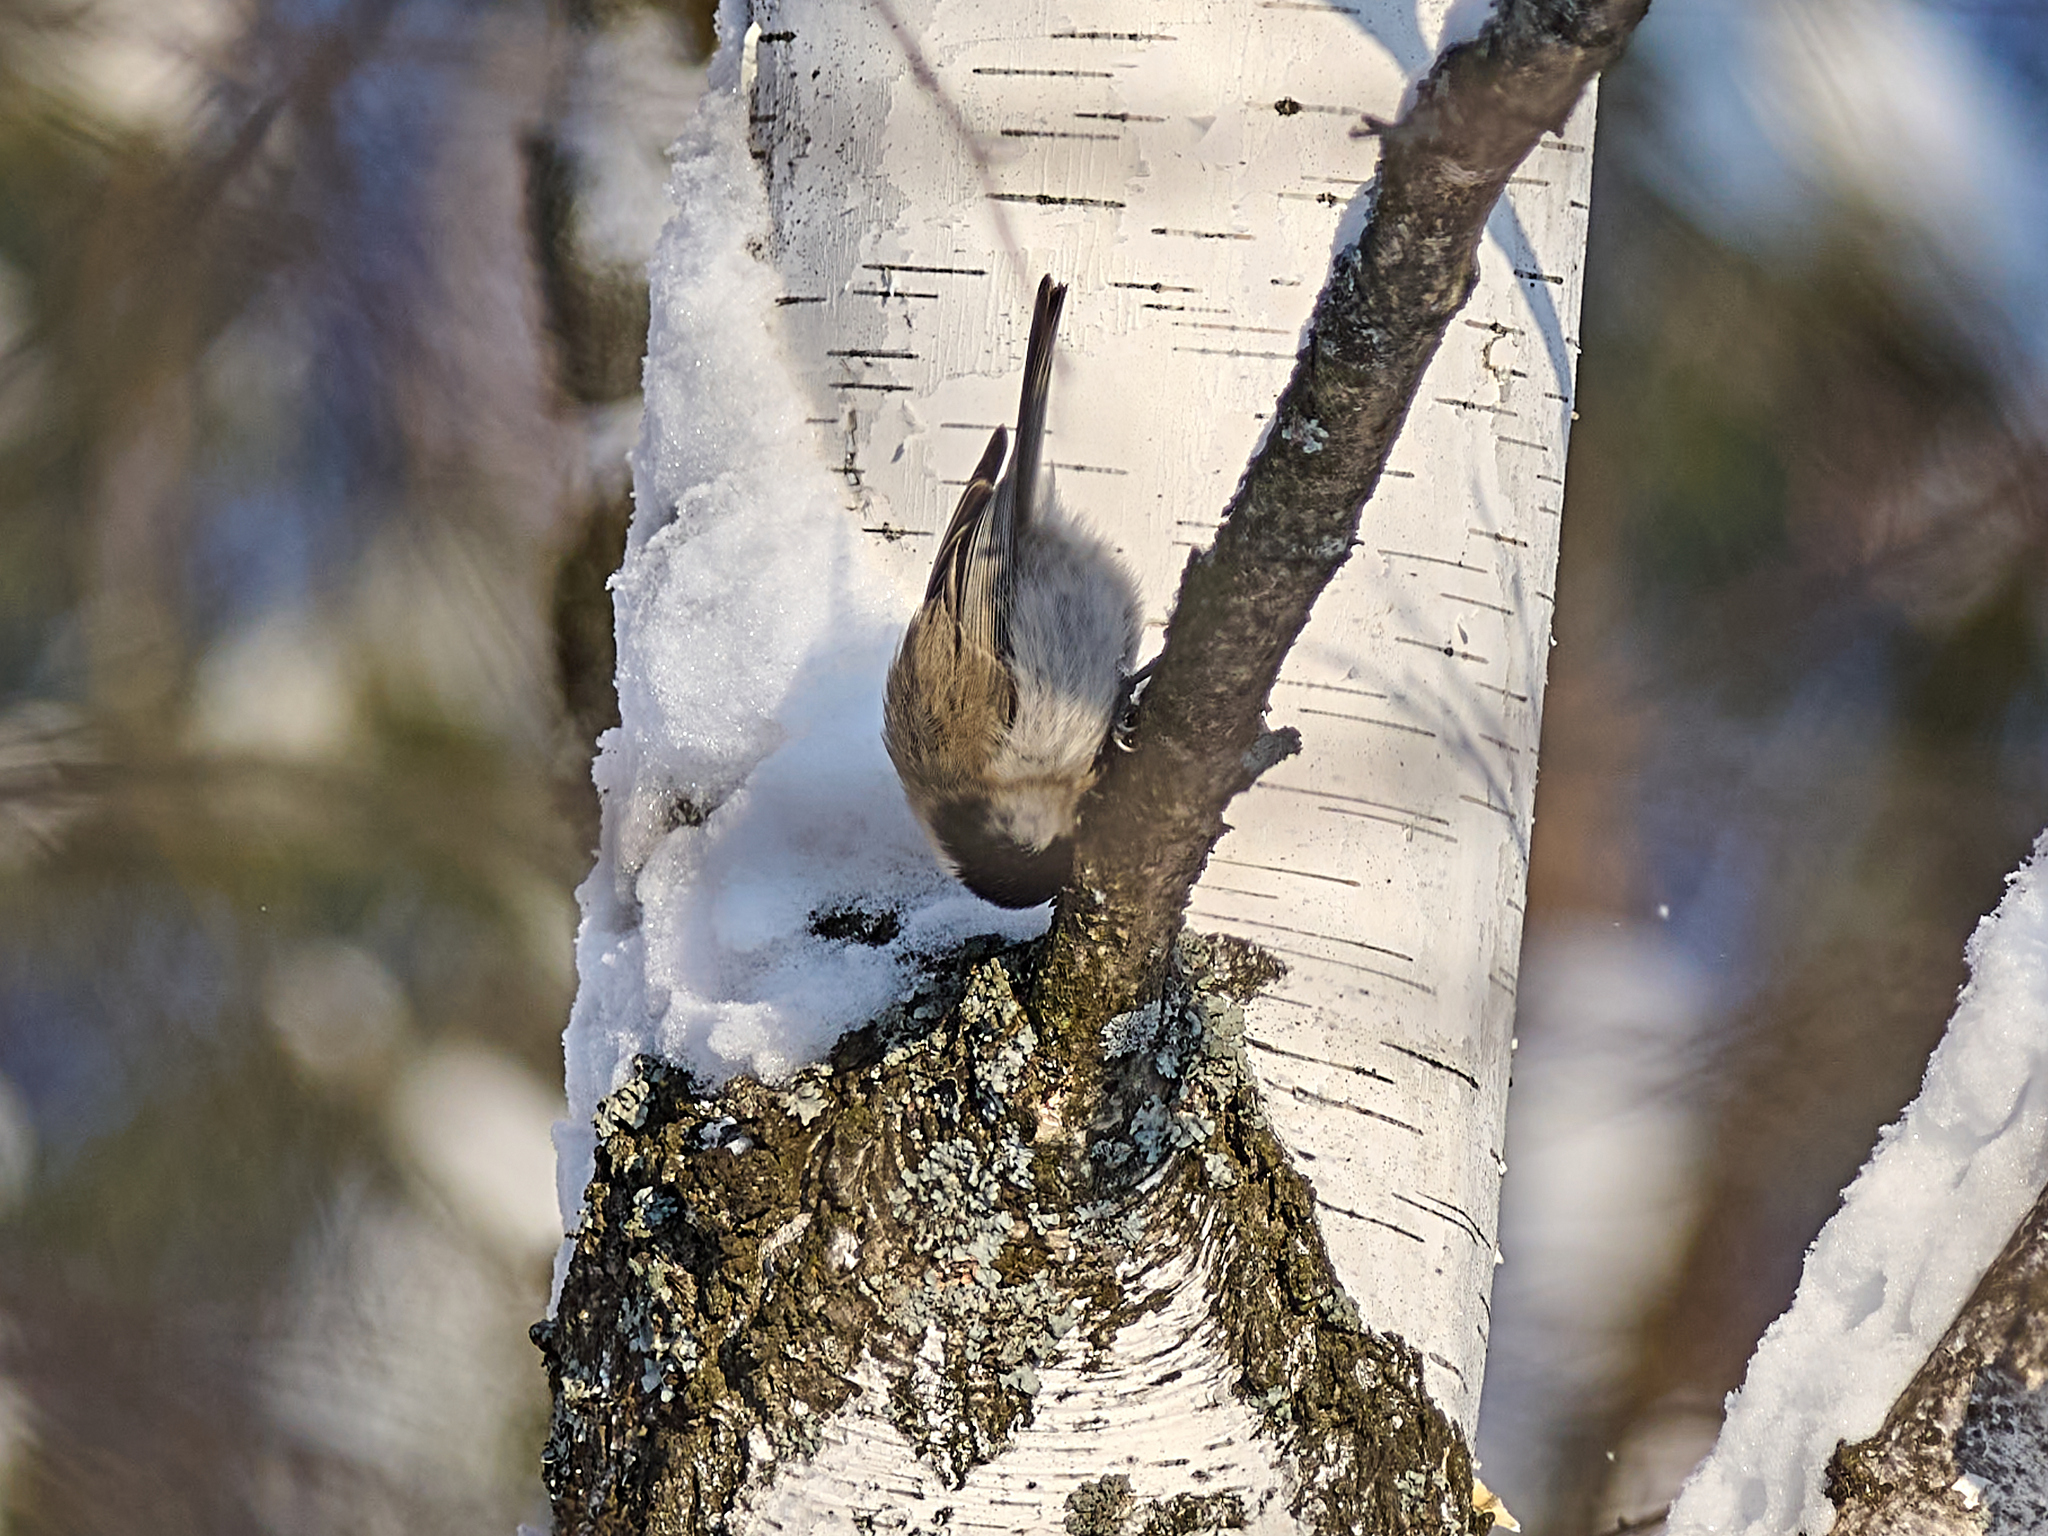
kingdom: Animalia
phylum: Chordata
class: Aves
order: Passeriformes
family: Paridae
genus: Poecile
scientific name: Poecile palustris
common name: Marsh tit
